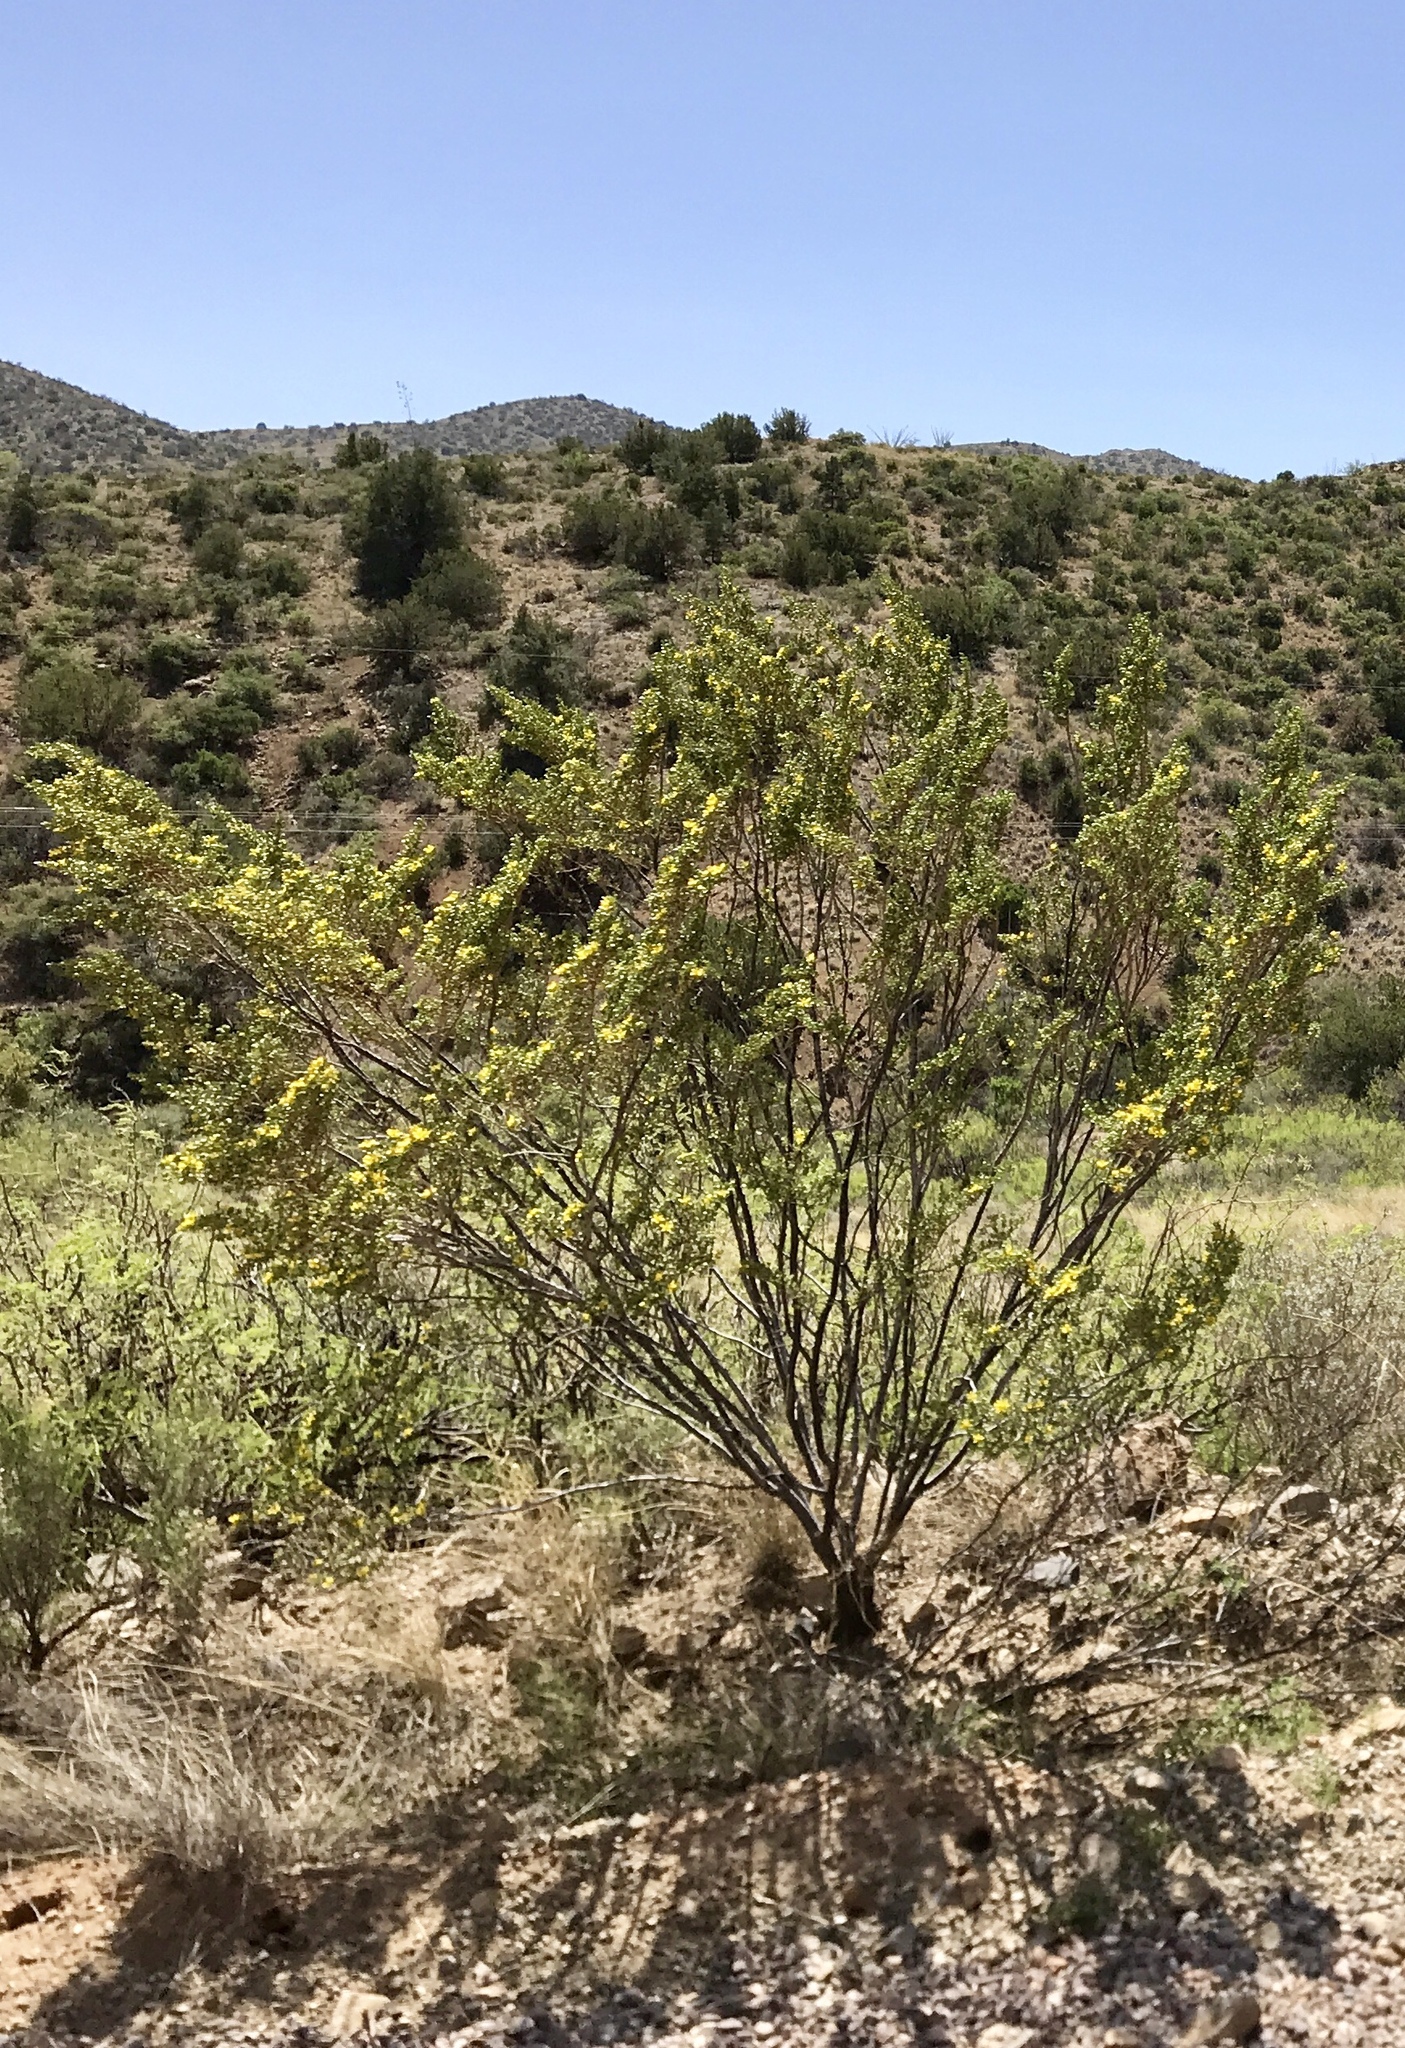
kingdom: Plantae
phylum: Tracheophyta
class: Magnoliopsida
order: Zygophyllales
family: Zygophyllaceae
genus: Larrea
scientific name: Larrea tridentata
